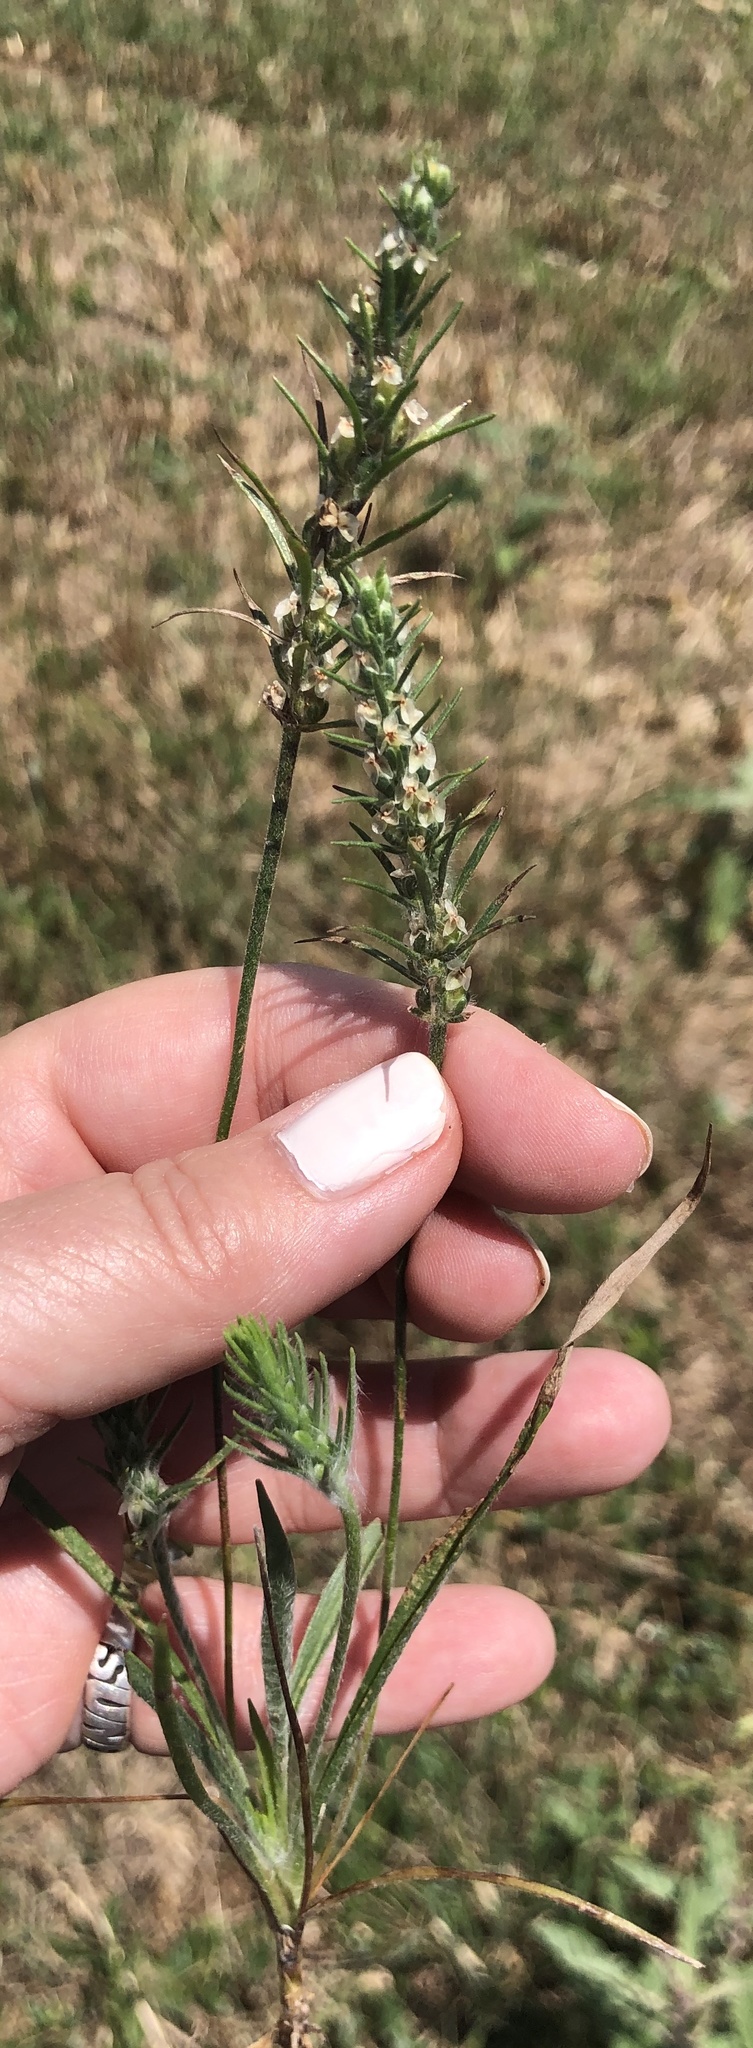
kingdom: Plantae
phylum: Tracheophyta
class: Magnoliopsida
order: Lamiales
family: Plantaginaceae
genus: Plantago
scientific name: Plantago aristata
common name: Bracted plantain
